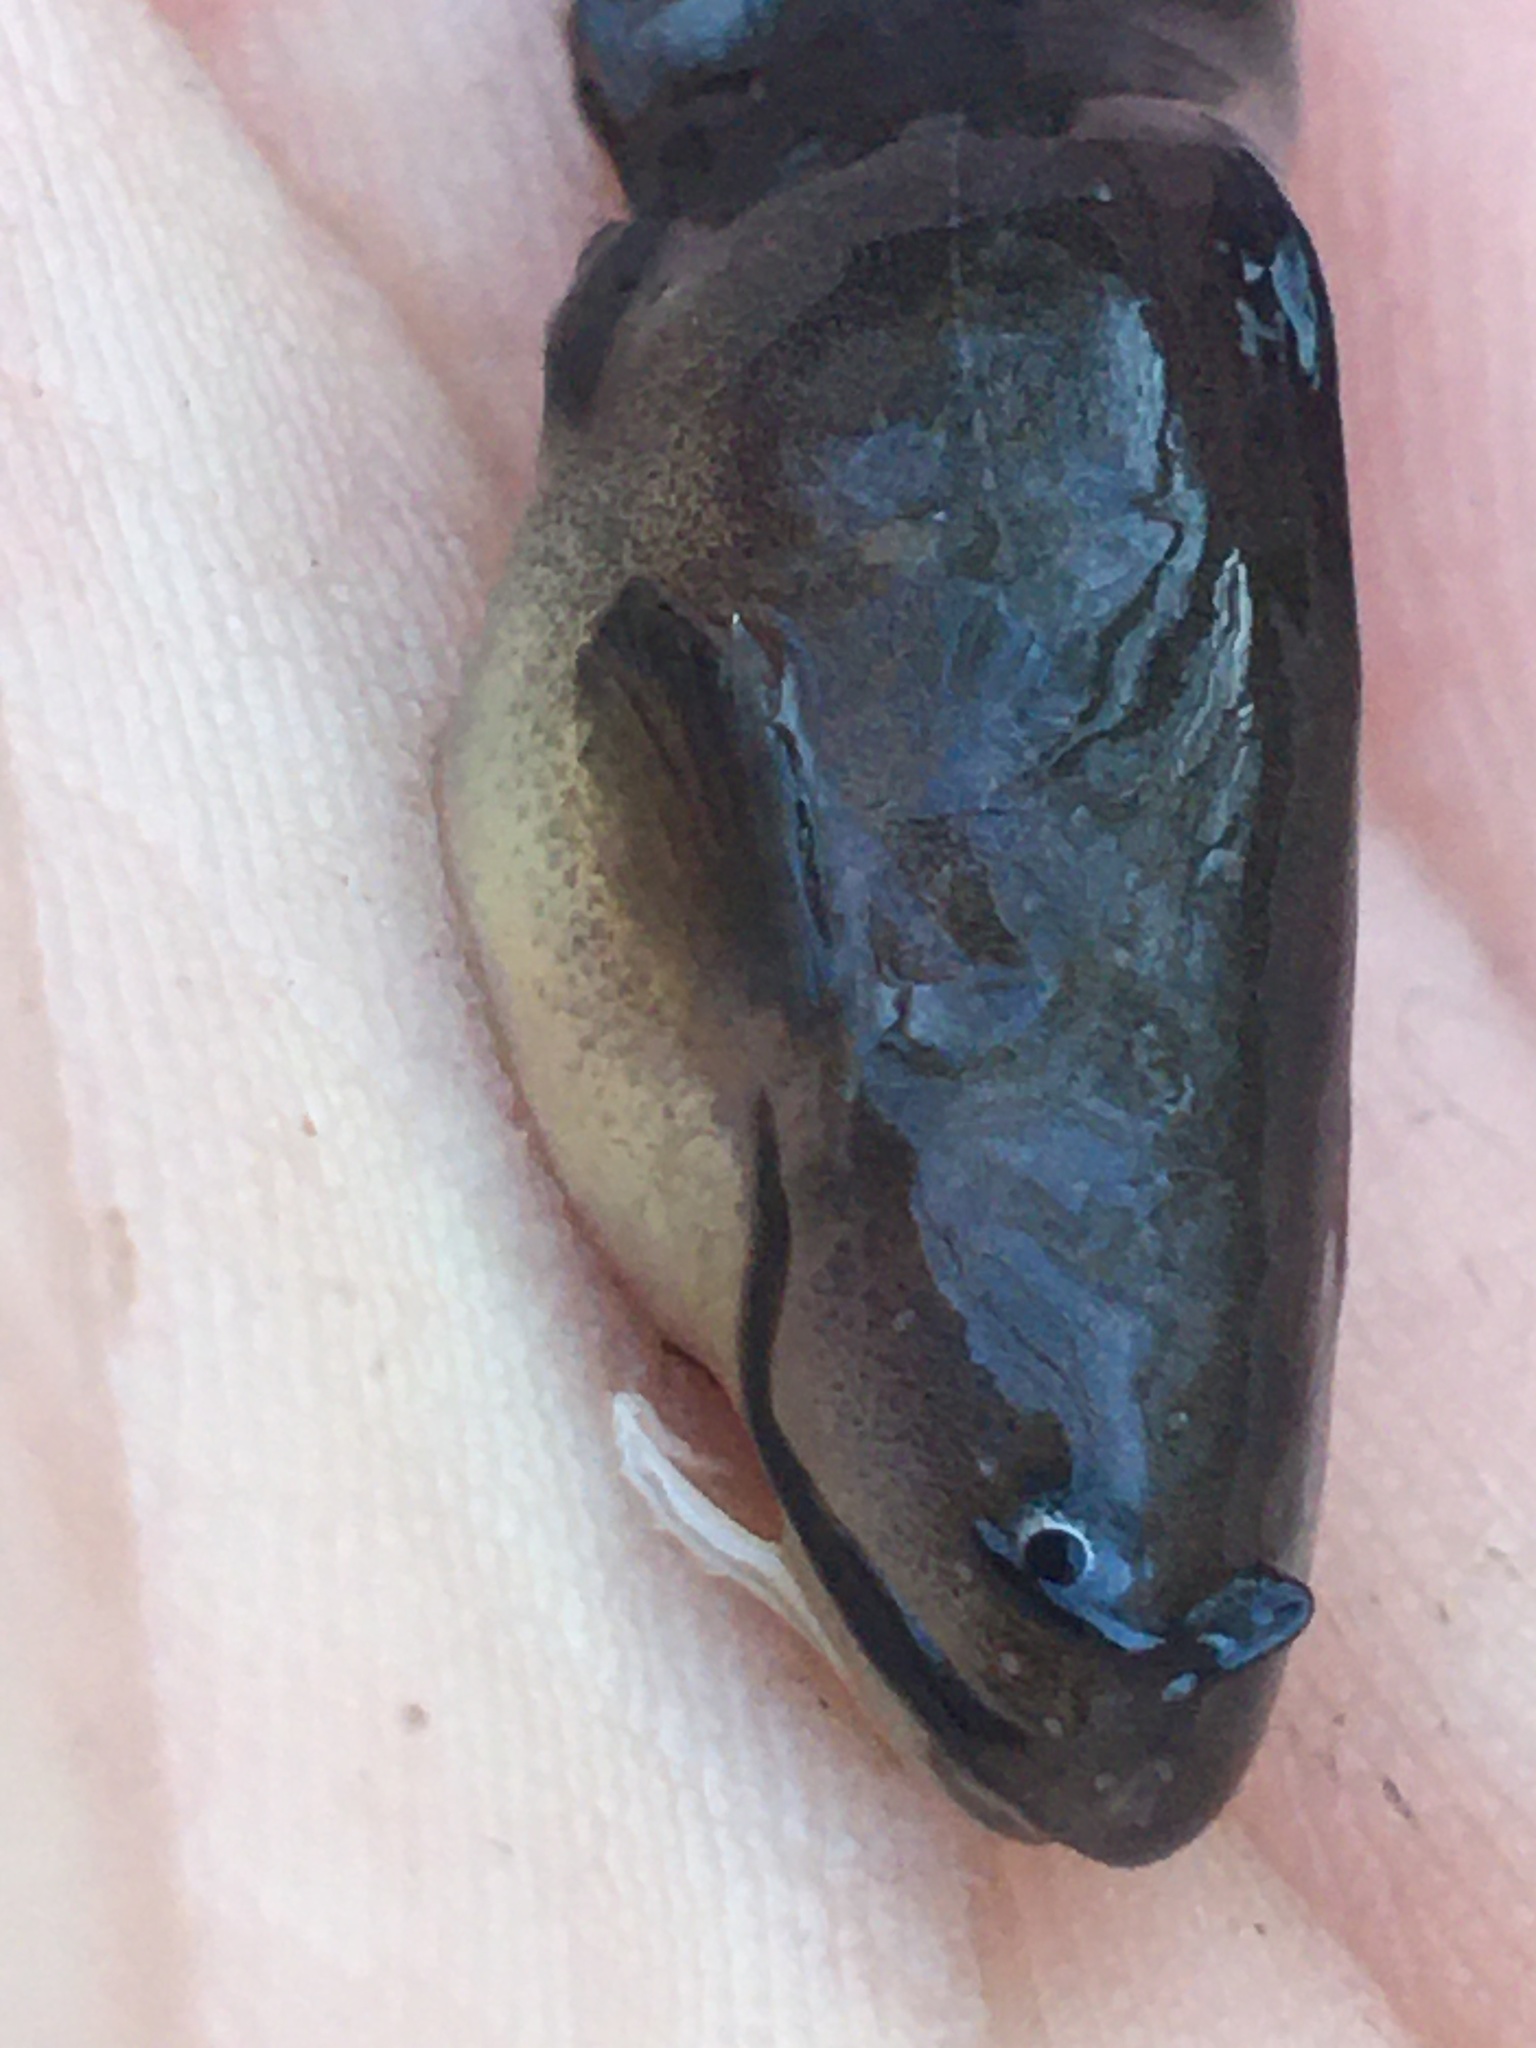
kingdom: Animalia
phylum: Chordata
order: Siluriformes
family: Ictaluridae
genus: Ameiurus
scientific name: Ameiurus natalis
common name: Yellow bullhead
